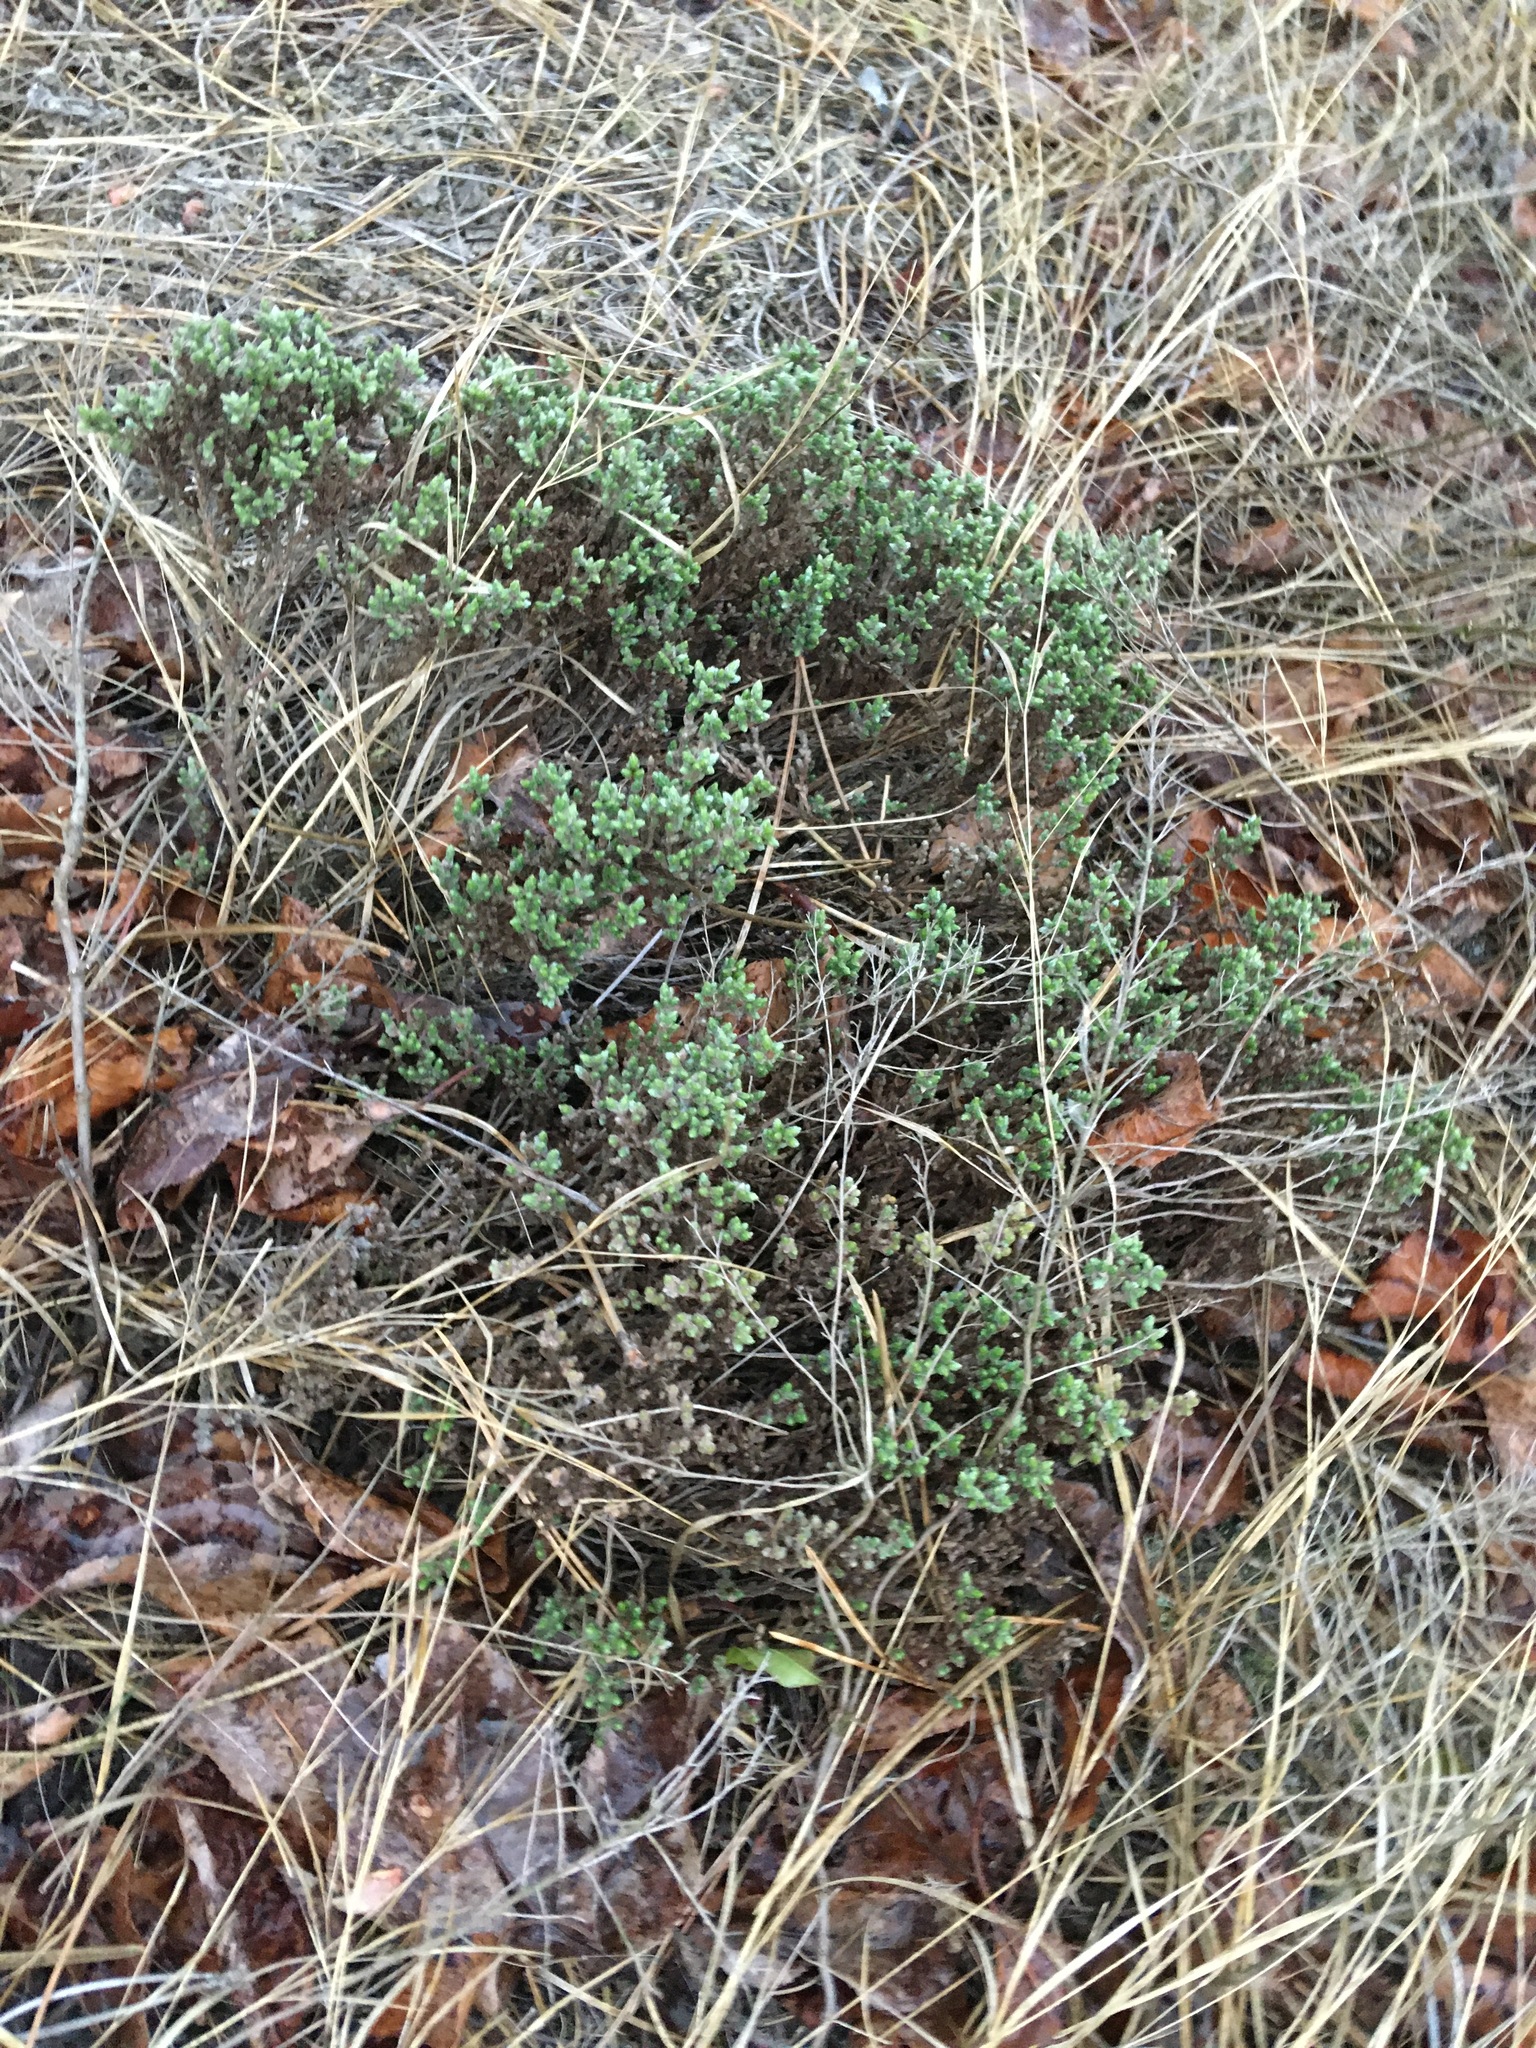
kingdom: Plantae
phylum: Tracheophyta
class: Magnoliopsida
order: Malvales
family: Cistaceae
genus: Hudsonia
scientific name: Hudsonia tomentosa
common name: Beach-heath
